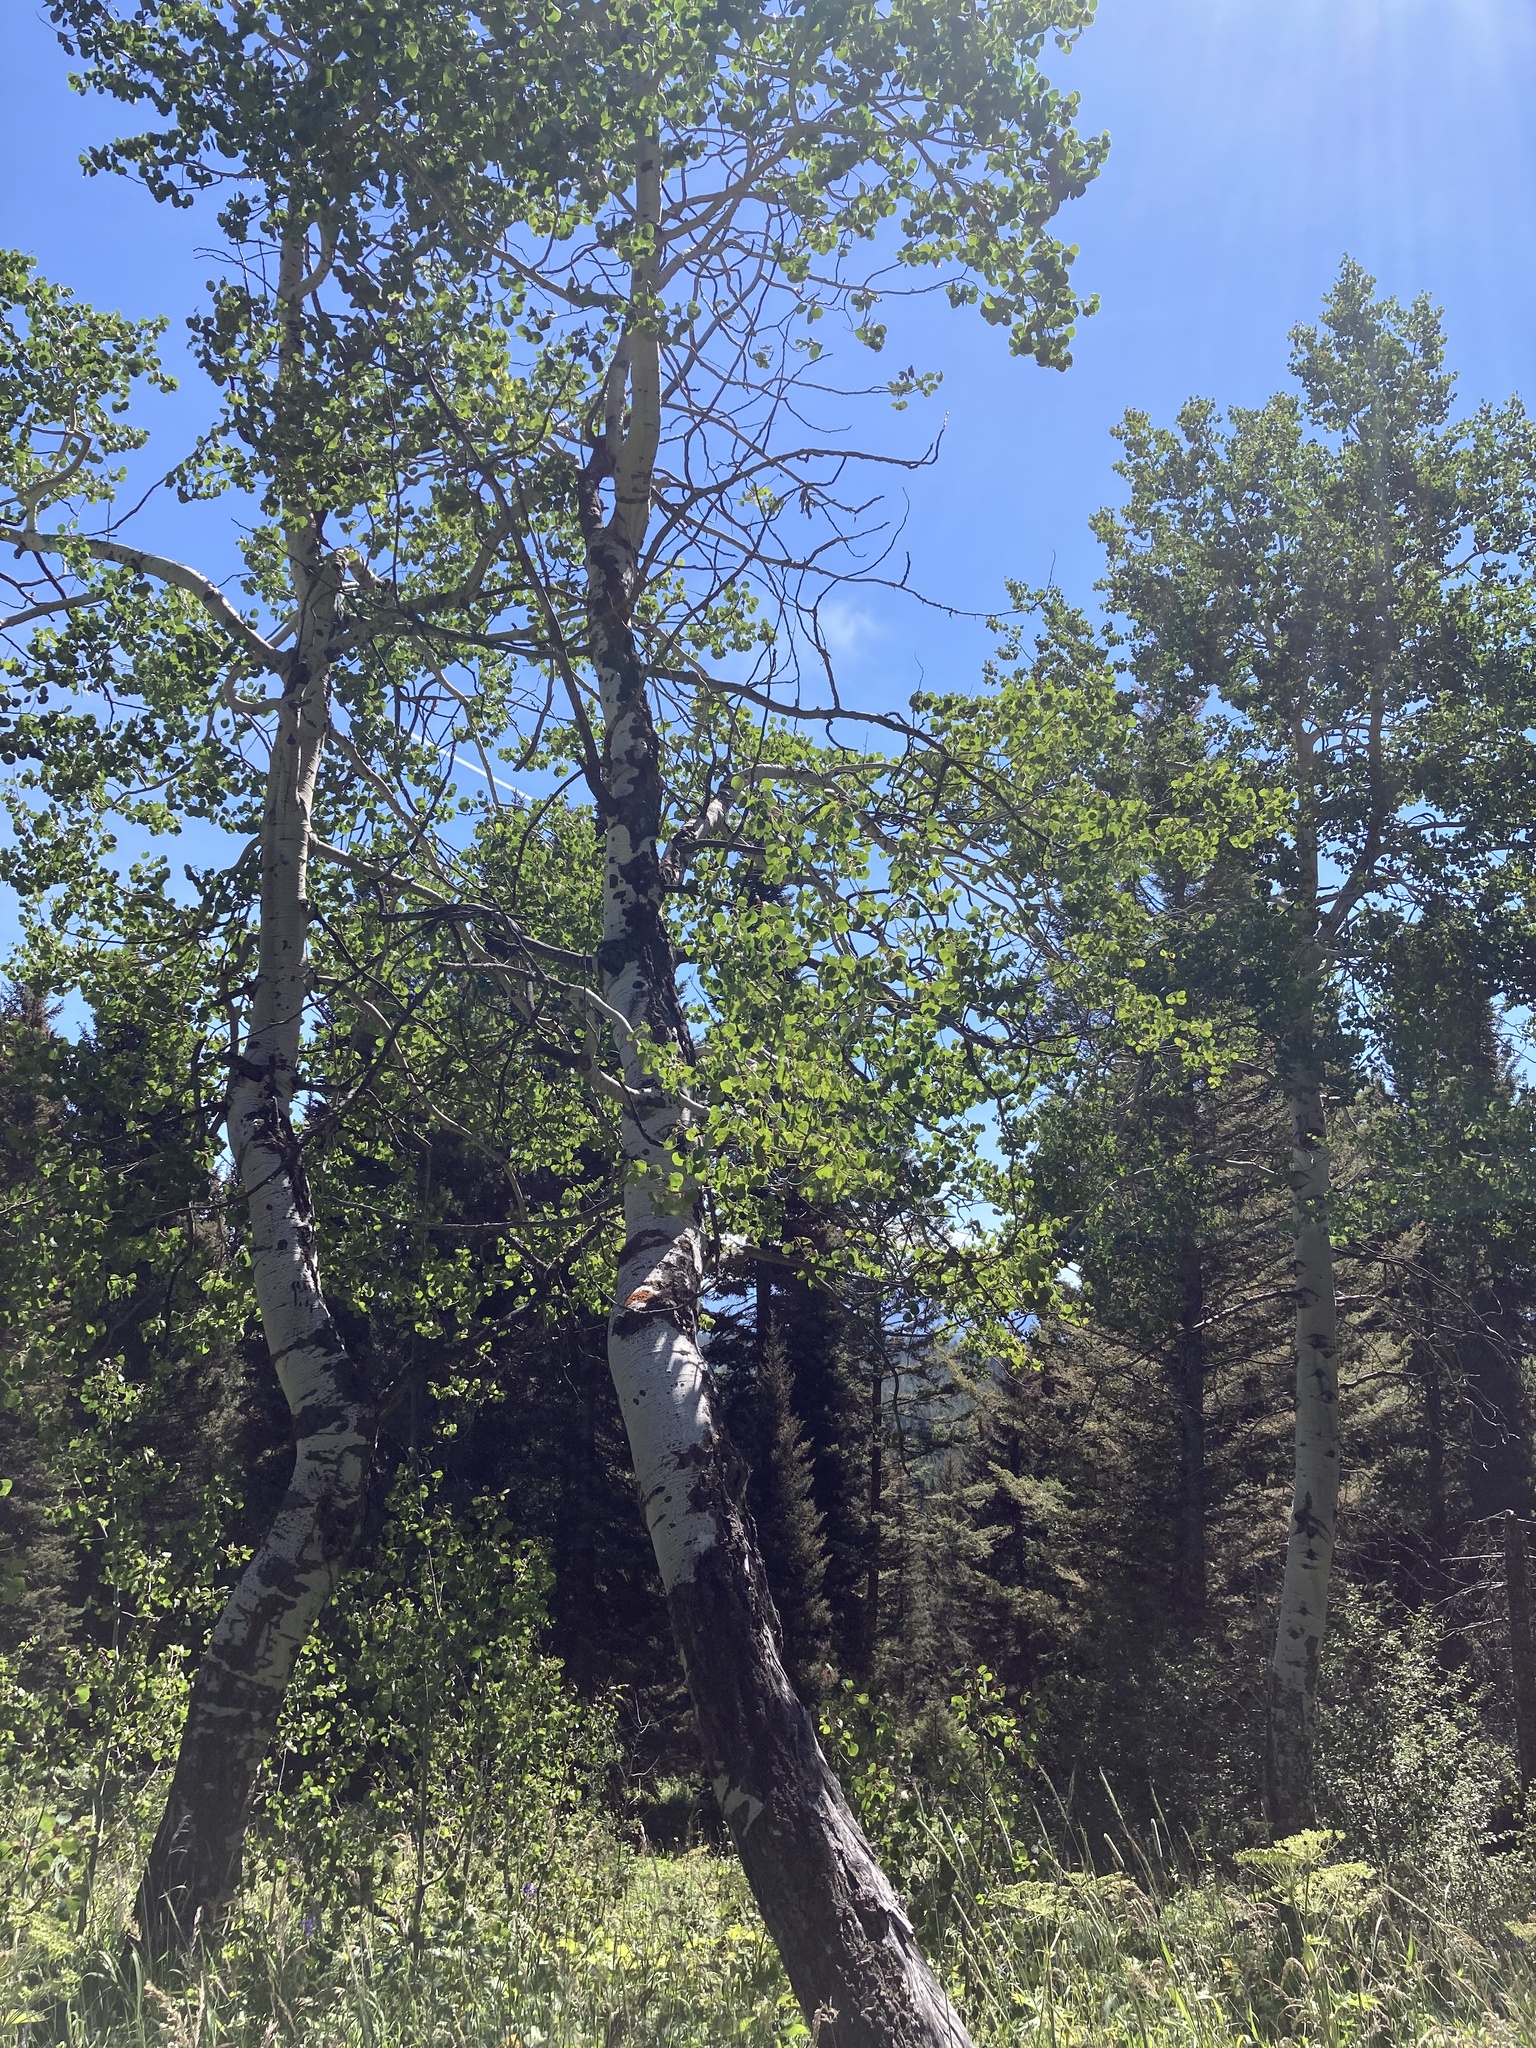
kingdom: Plantae
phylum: Tracheophyta
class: Magnoliopsida
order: Malpighiales
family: Salicaceae
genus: Populus
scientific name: Populus tremuloides
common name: Quaking aspen
